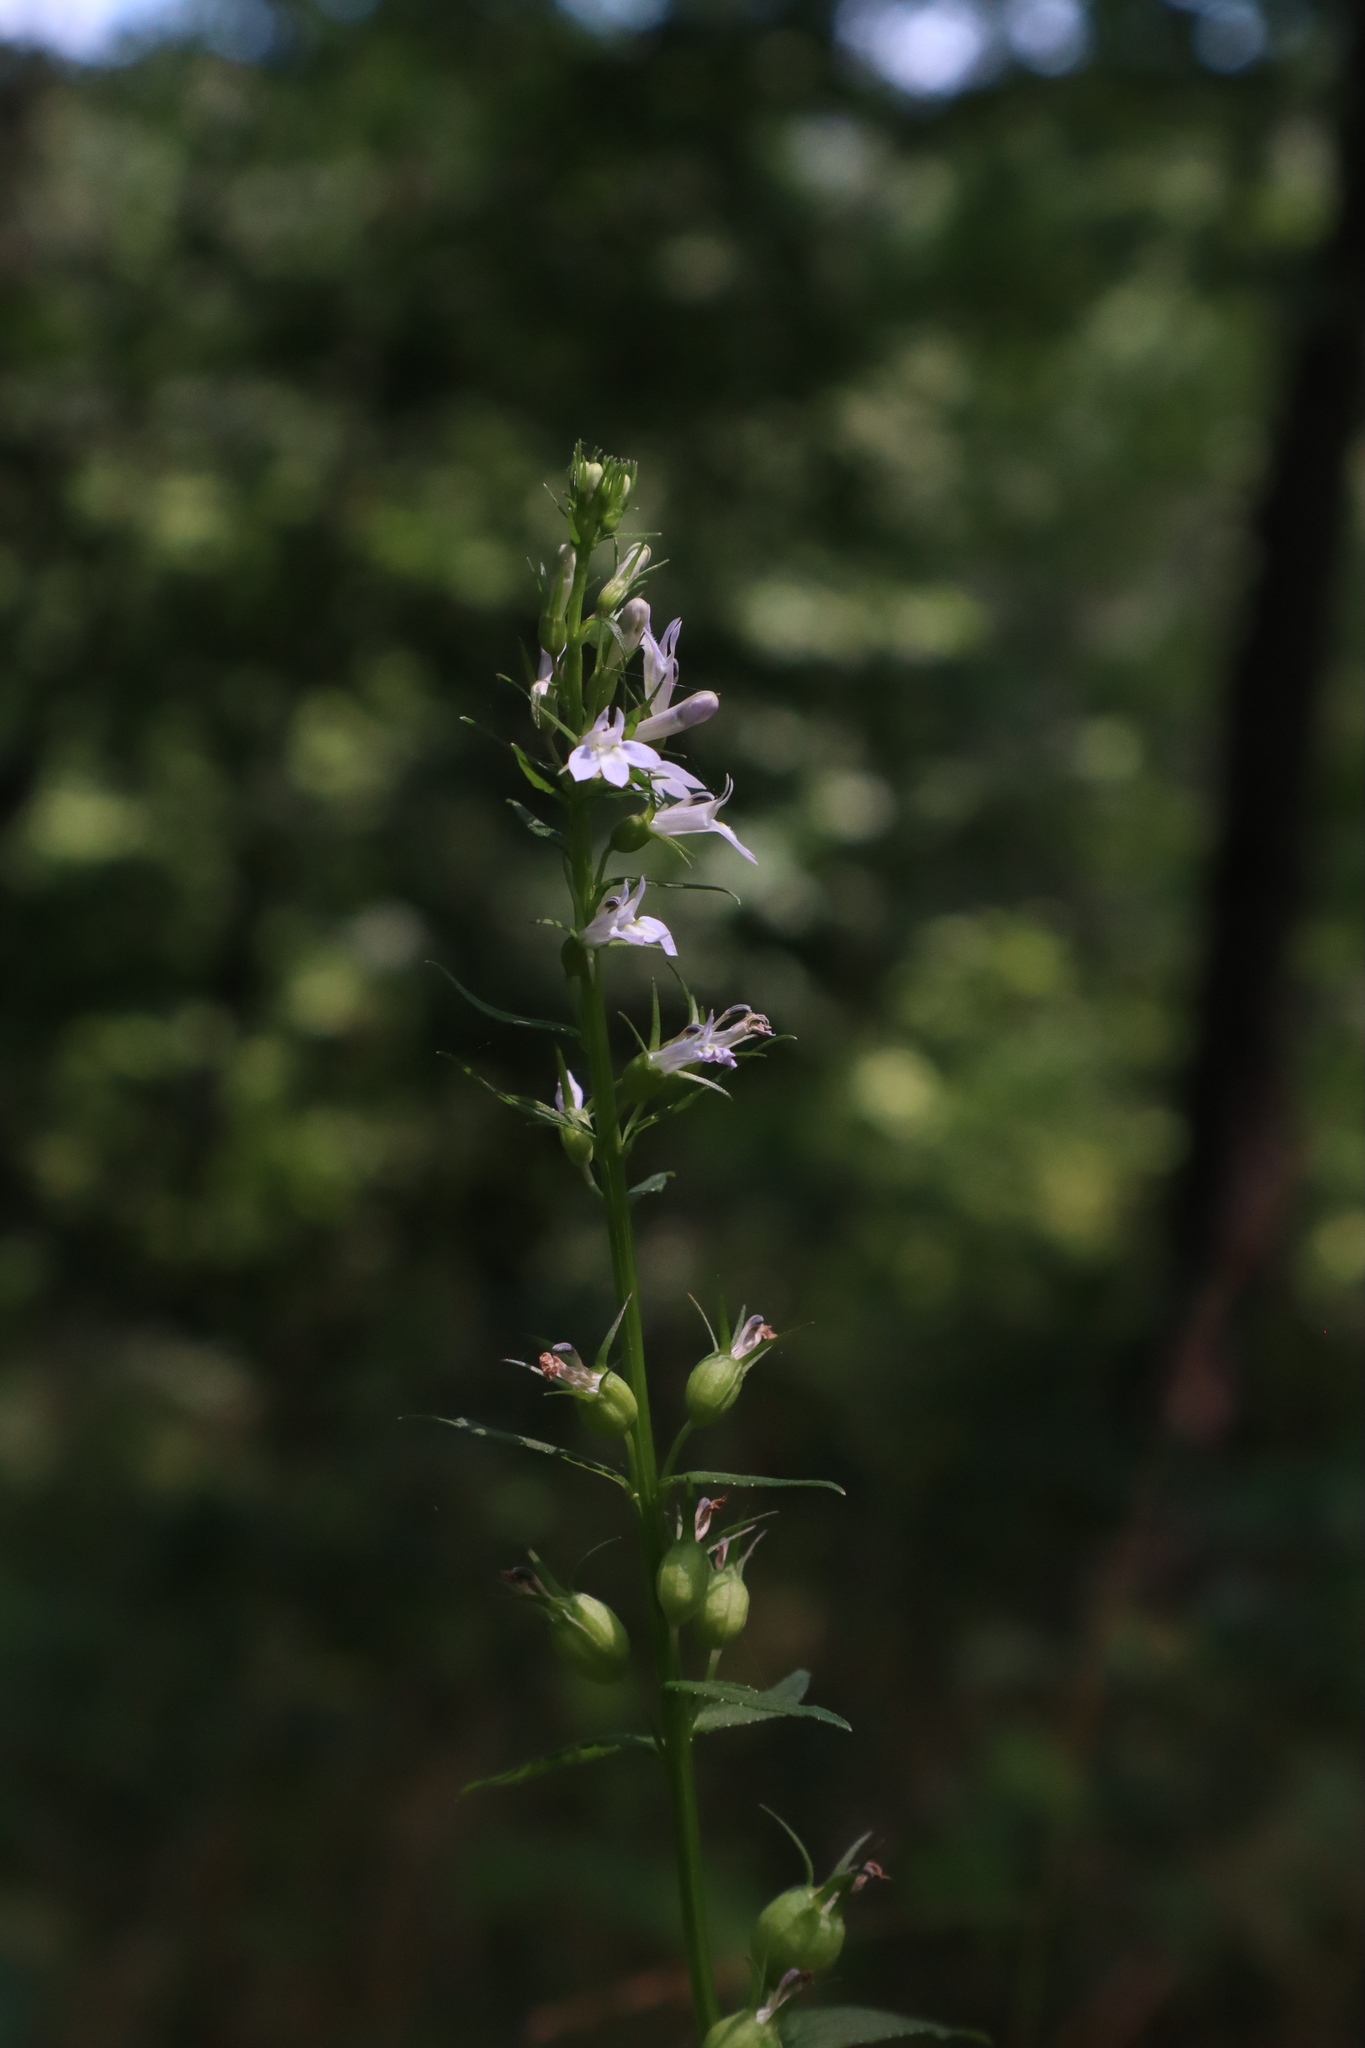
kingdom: Plantae
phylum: Tracheophyta
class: Magnoliopsida
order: Asterales
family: Campanulaceae
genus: Lobelia
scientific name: Lobelia inflata
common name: Indian tobacco
